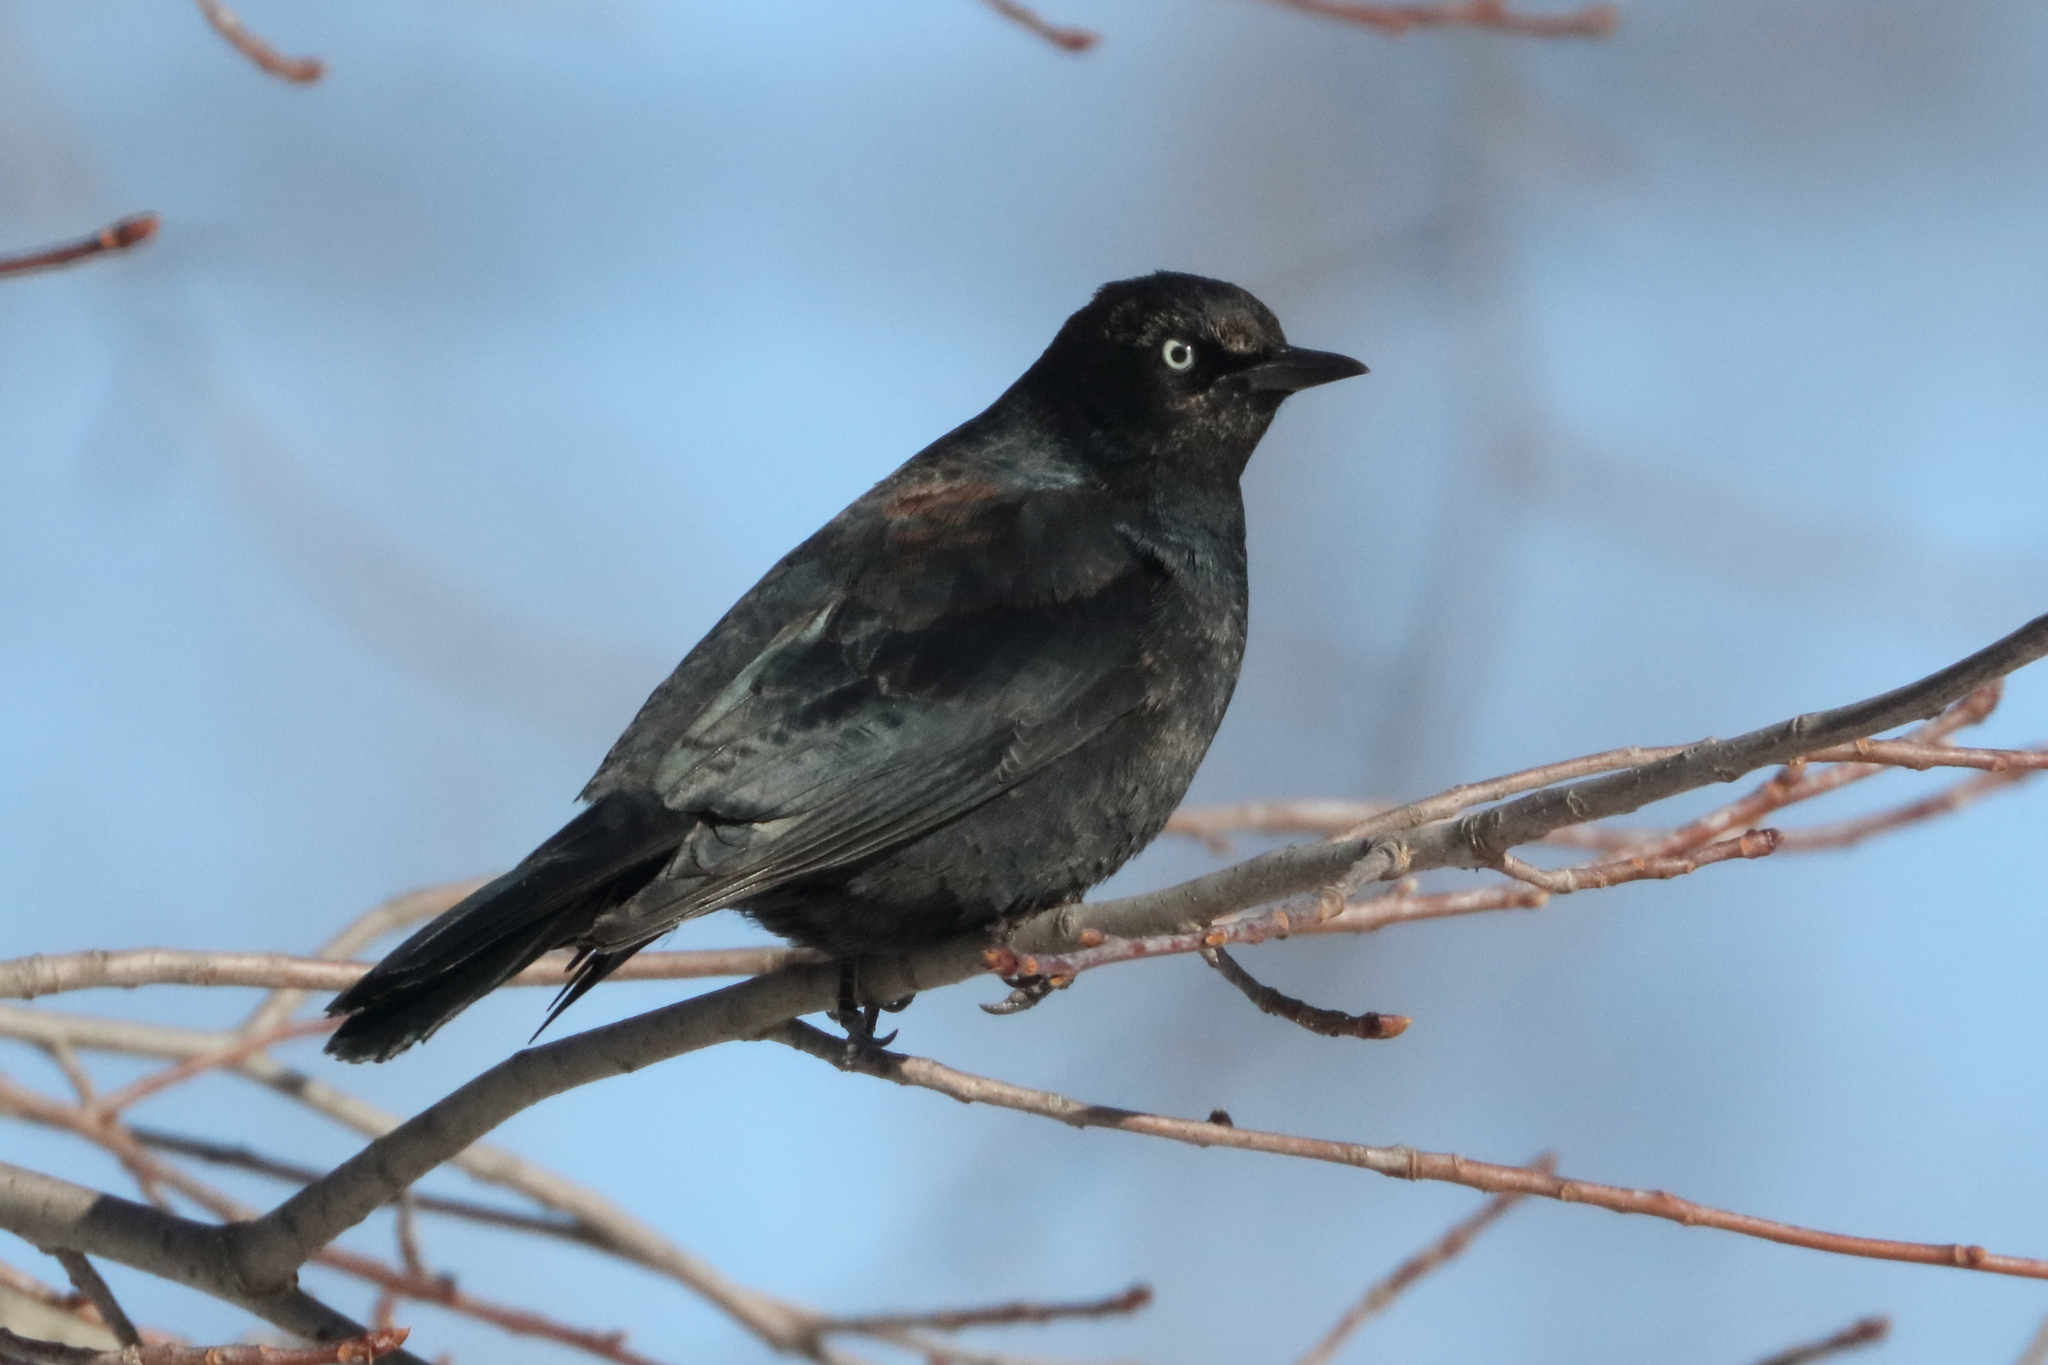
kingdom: Animalia
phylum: Chordata
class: Aves
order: Passeriformes
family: Icteridae
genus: Euphagus
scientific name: Euphagus carolinus
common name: Rusty blackbird
